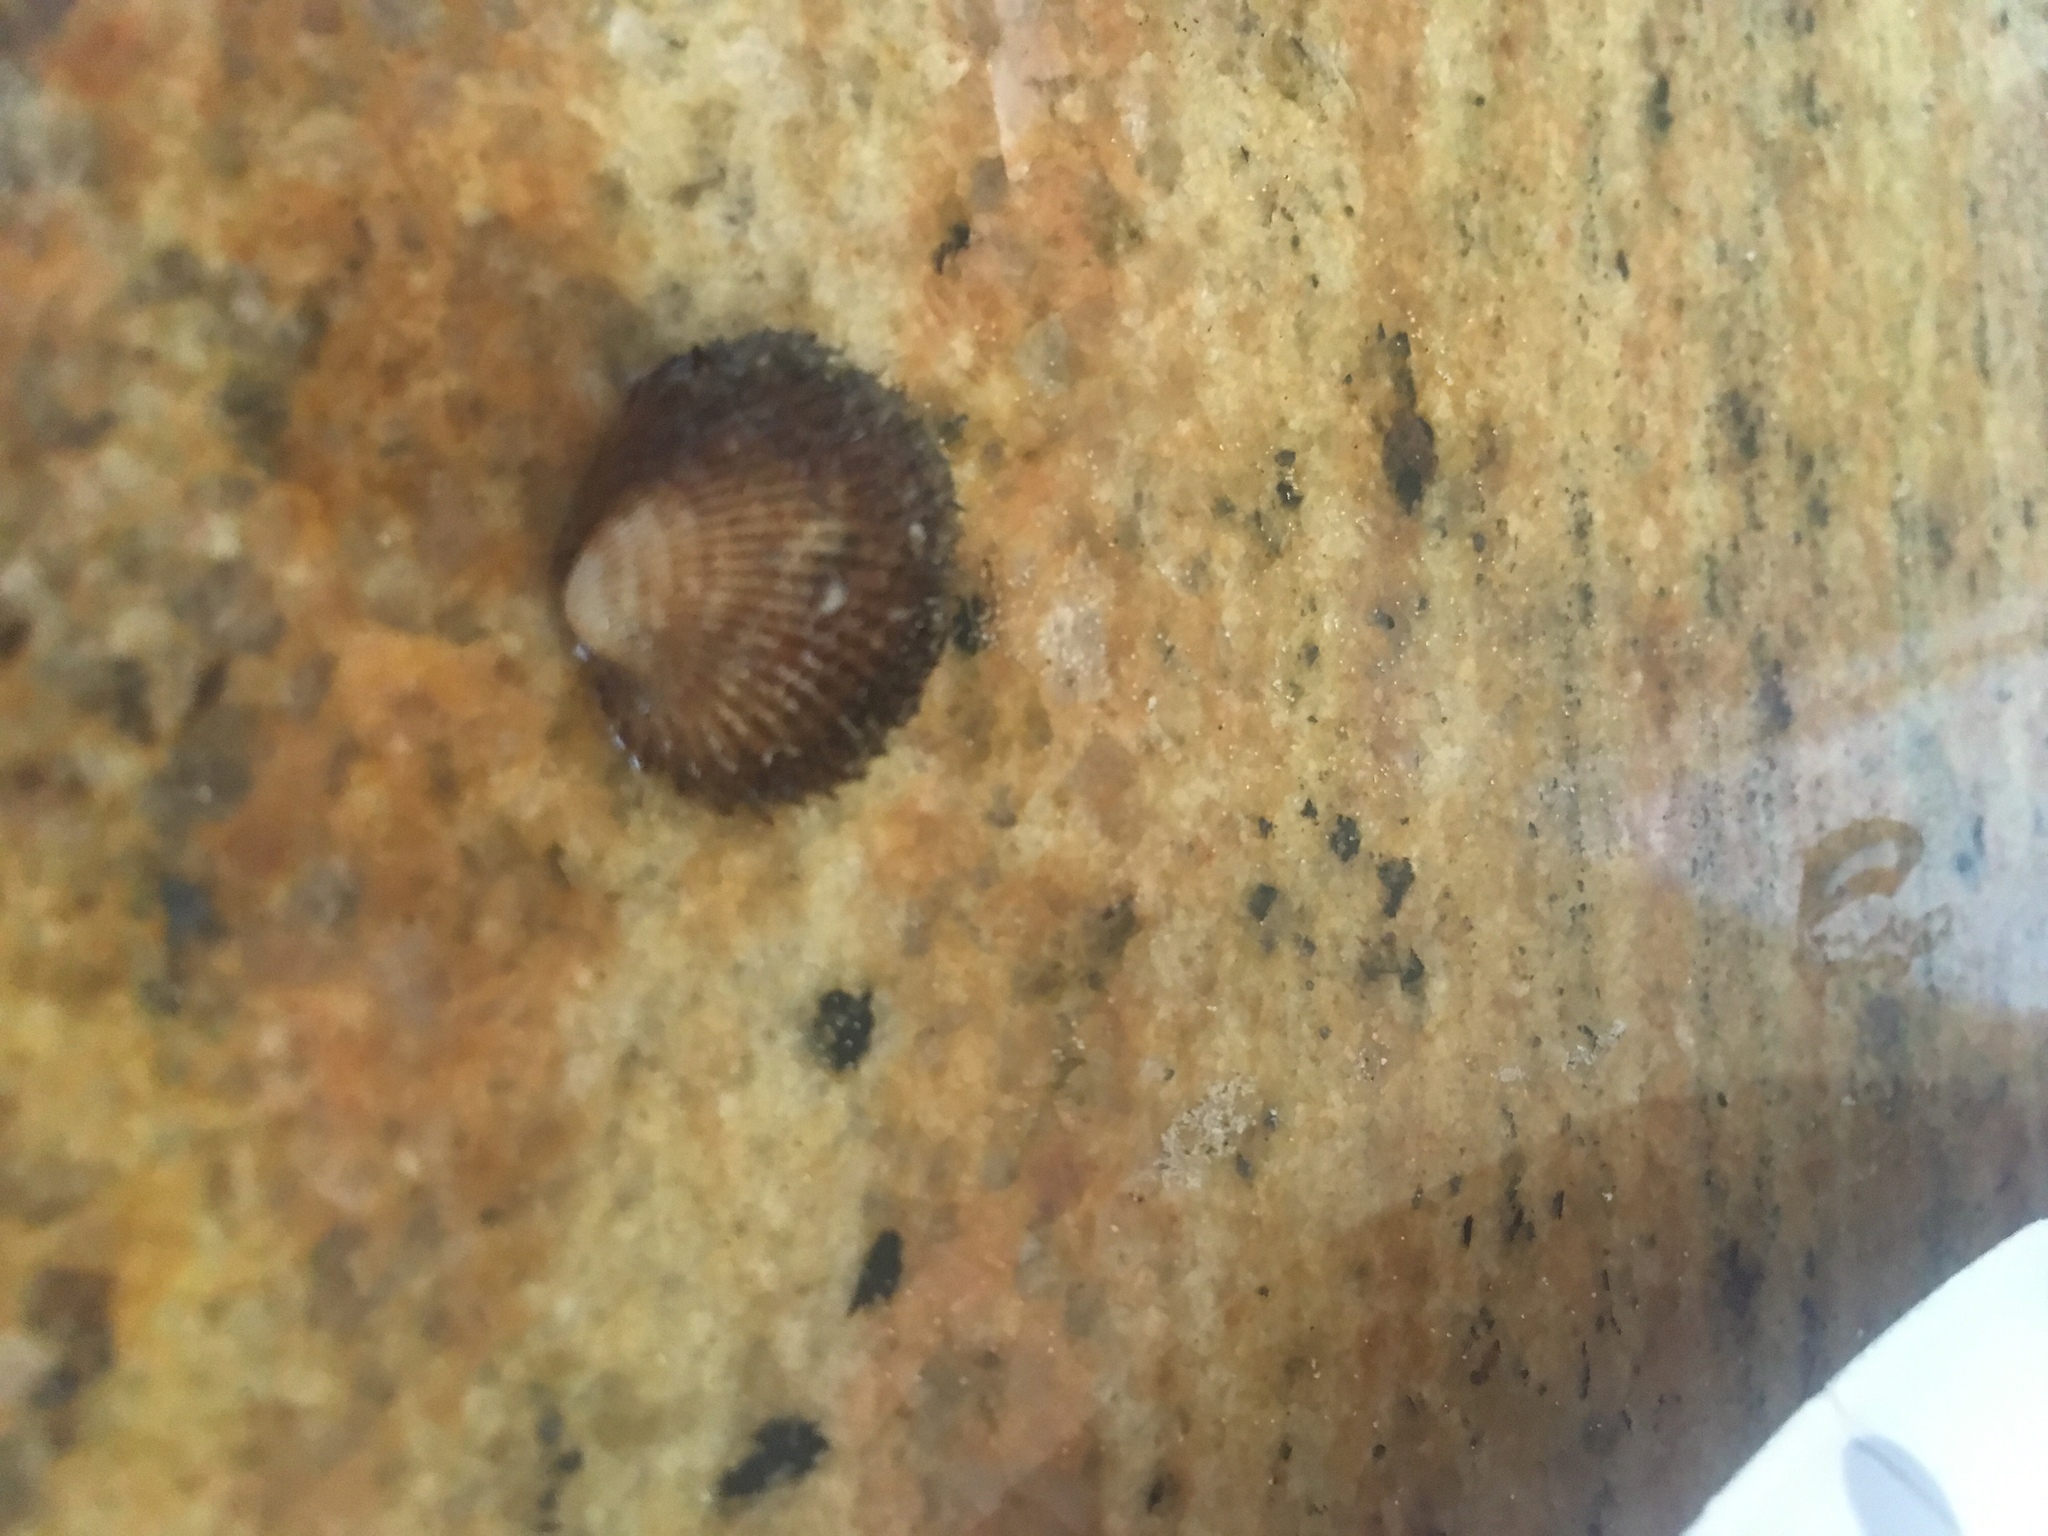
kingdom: Animalia
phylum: Mollusca
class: Bivalvia
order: Arcida
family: Arcidae
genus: Lunarca
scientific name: Lunarca ovalis
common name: Blood ark
